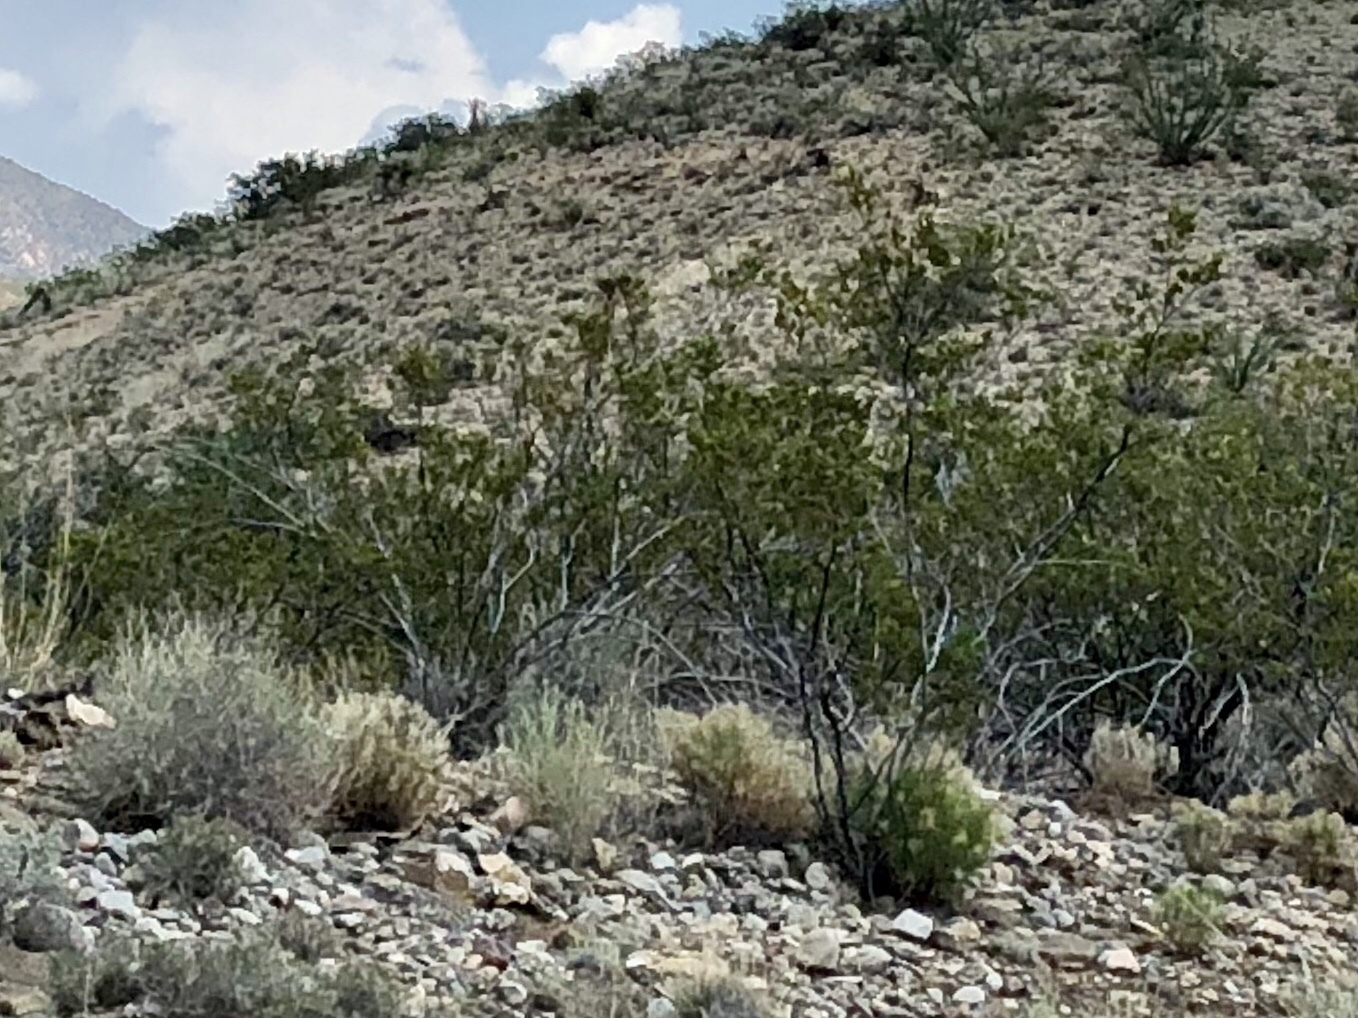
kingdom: Plantae
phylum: Tracheophyta
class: Magnoliopsida
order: Zygophyllales
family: Zygophyllaceae
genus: Larrea
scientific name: Larrea tridentata
